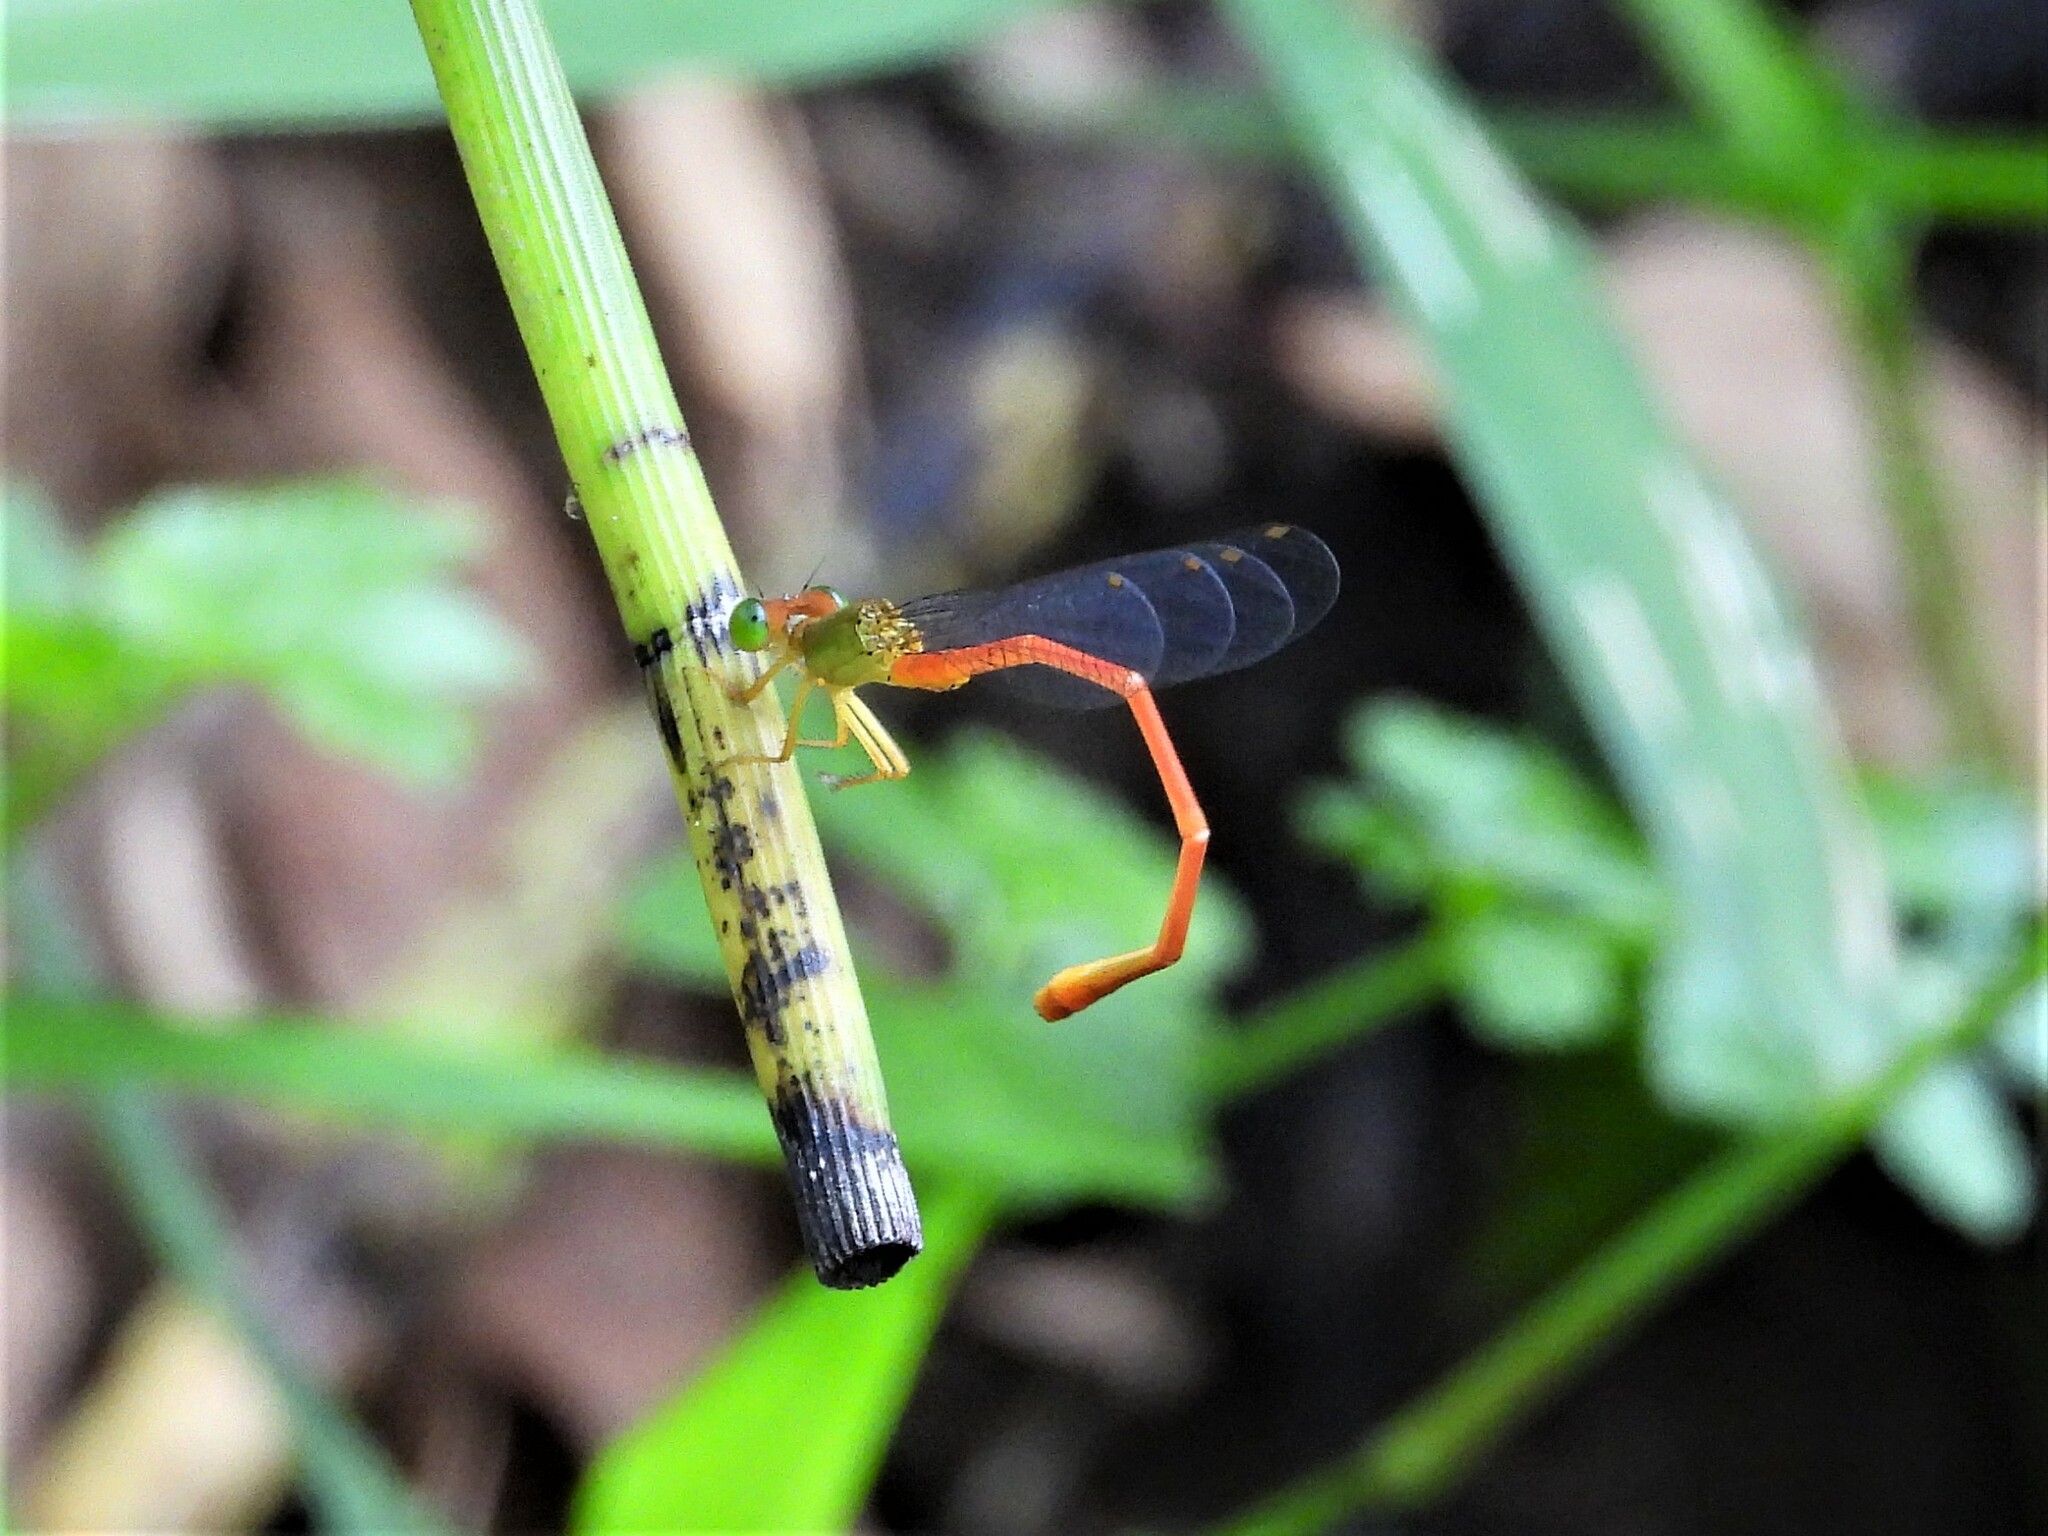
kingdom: Animalia
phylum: Arthropoda
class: Insecta
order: Odonata
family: Coenagrionidae
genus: Ceriagrion
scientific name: Ceriagrion auranticum
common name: Orange-tailed sprite
